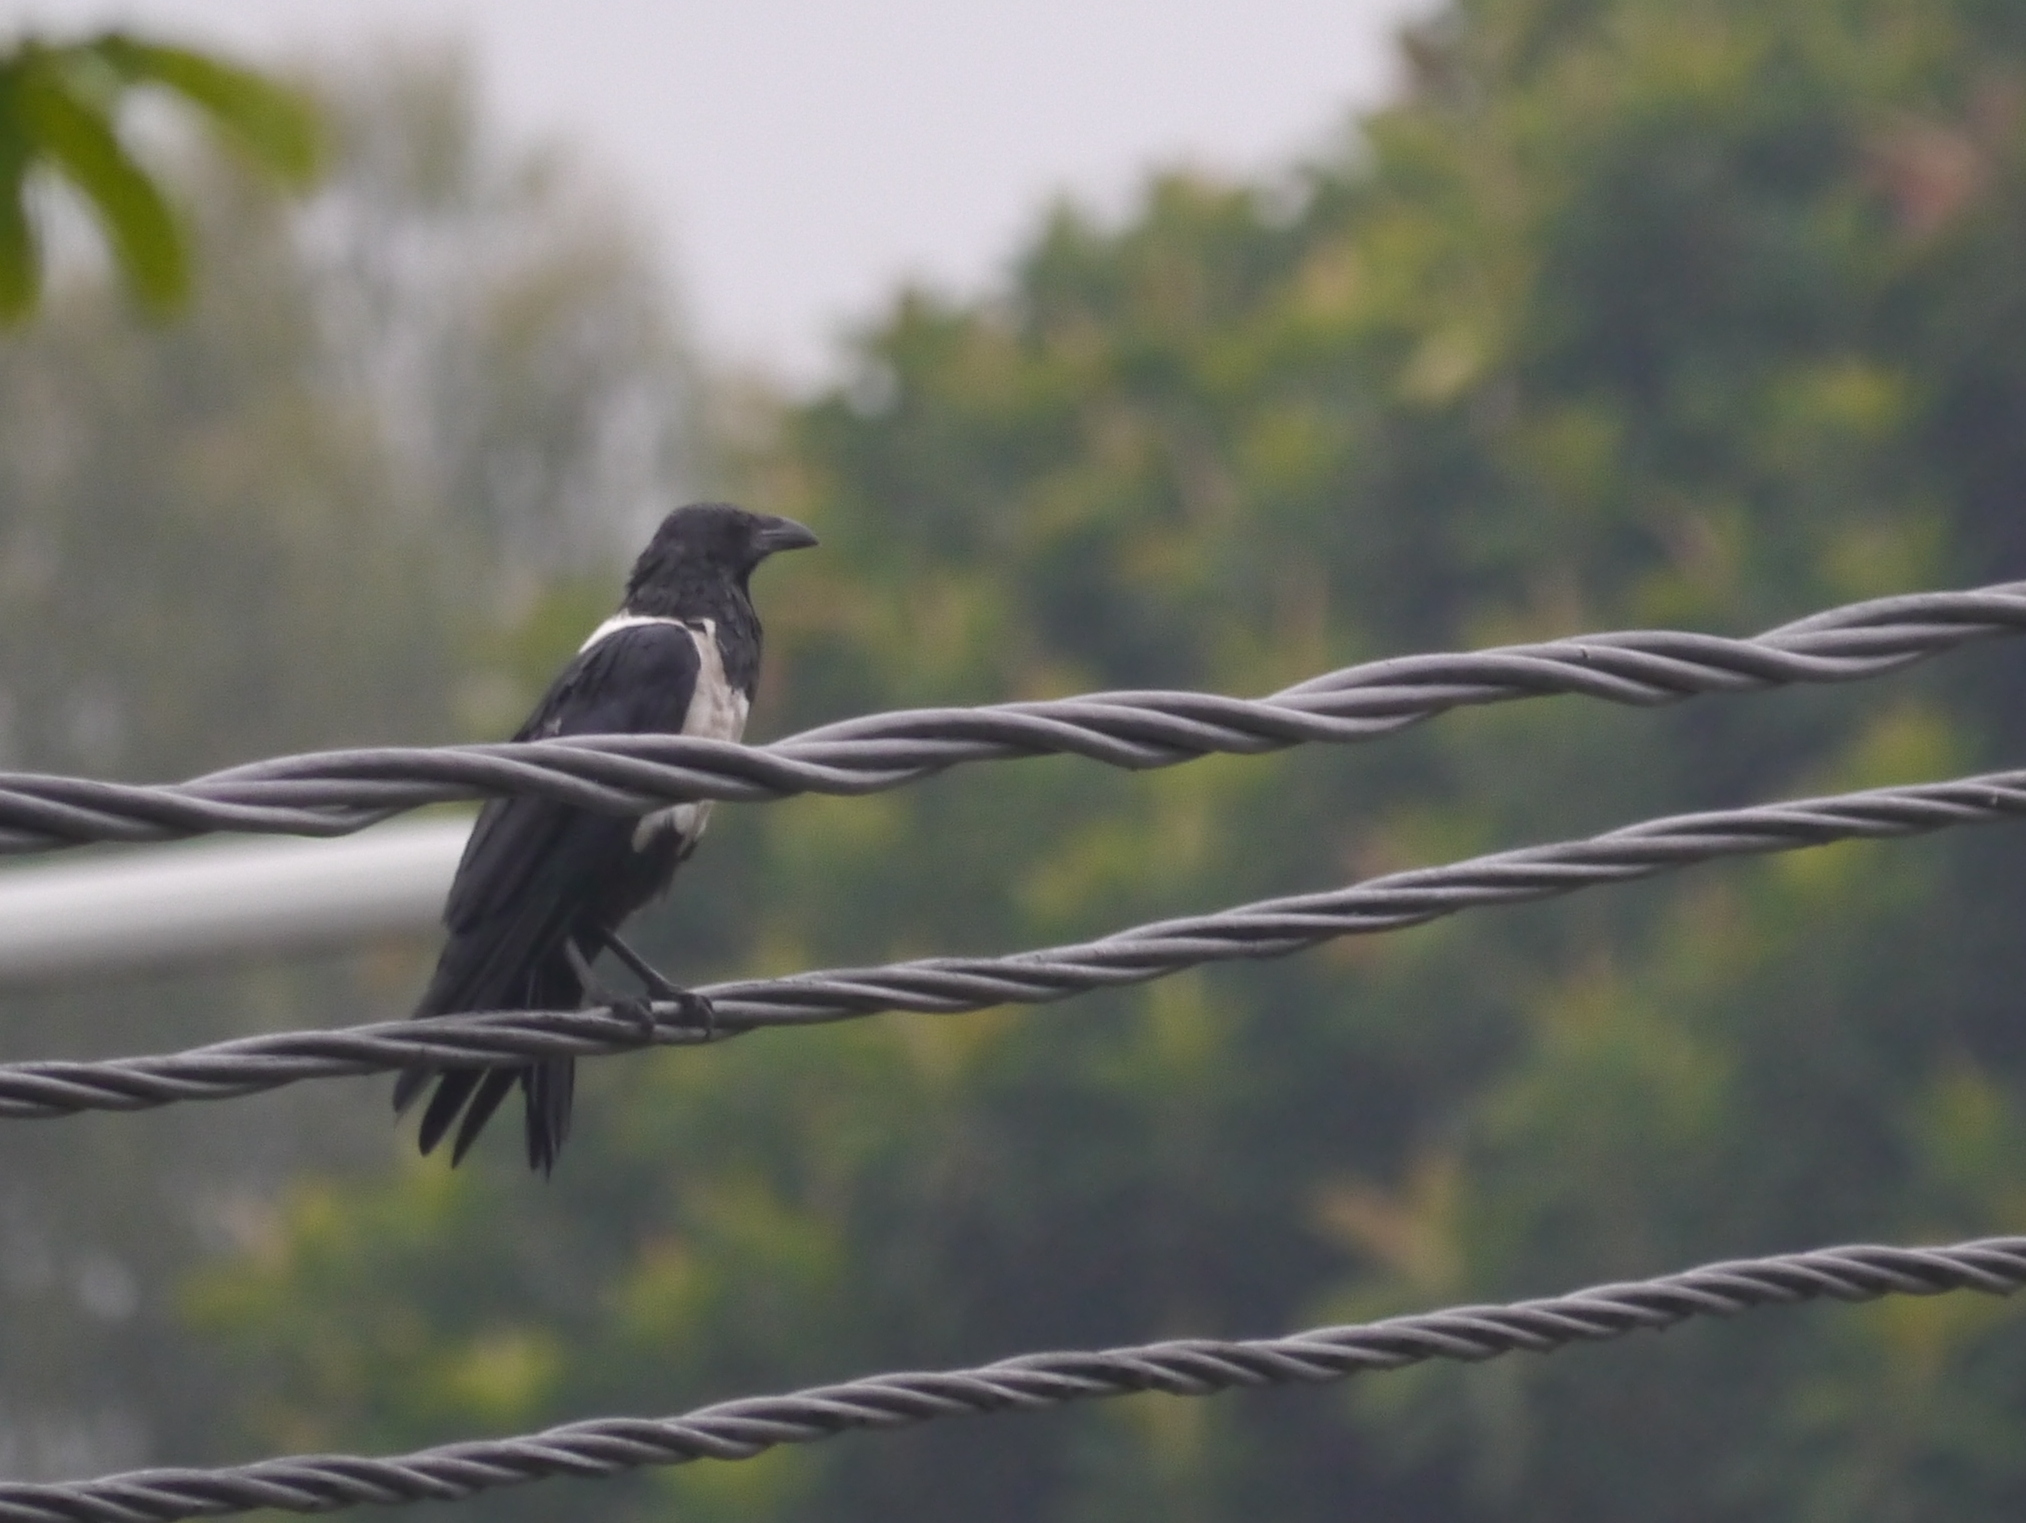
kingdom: Animalia
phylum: Chordata
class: Aves
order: Passeriformes
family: Corvidae
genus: Corvus
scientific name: Corvus albus
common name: Pied crow
